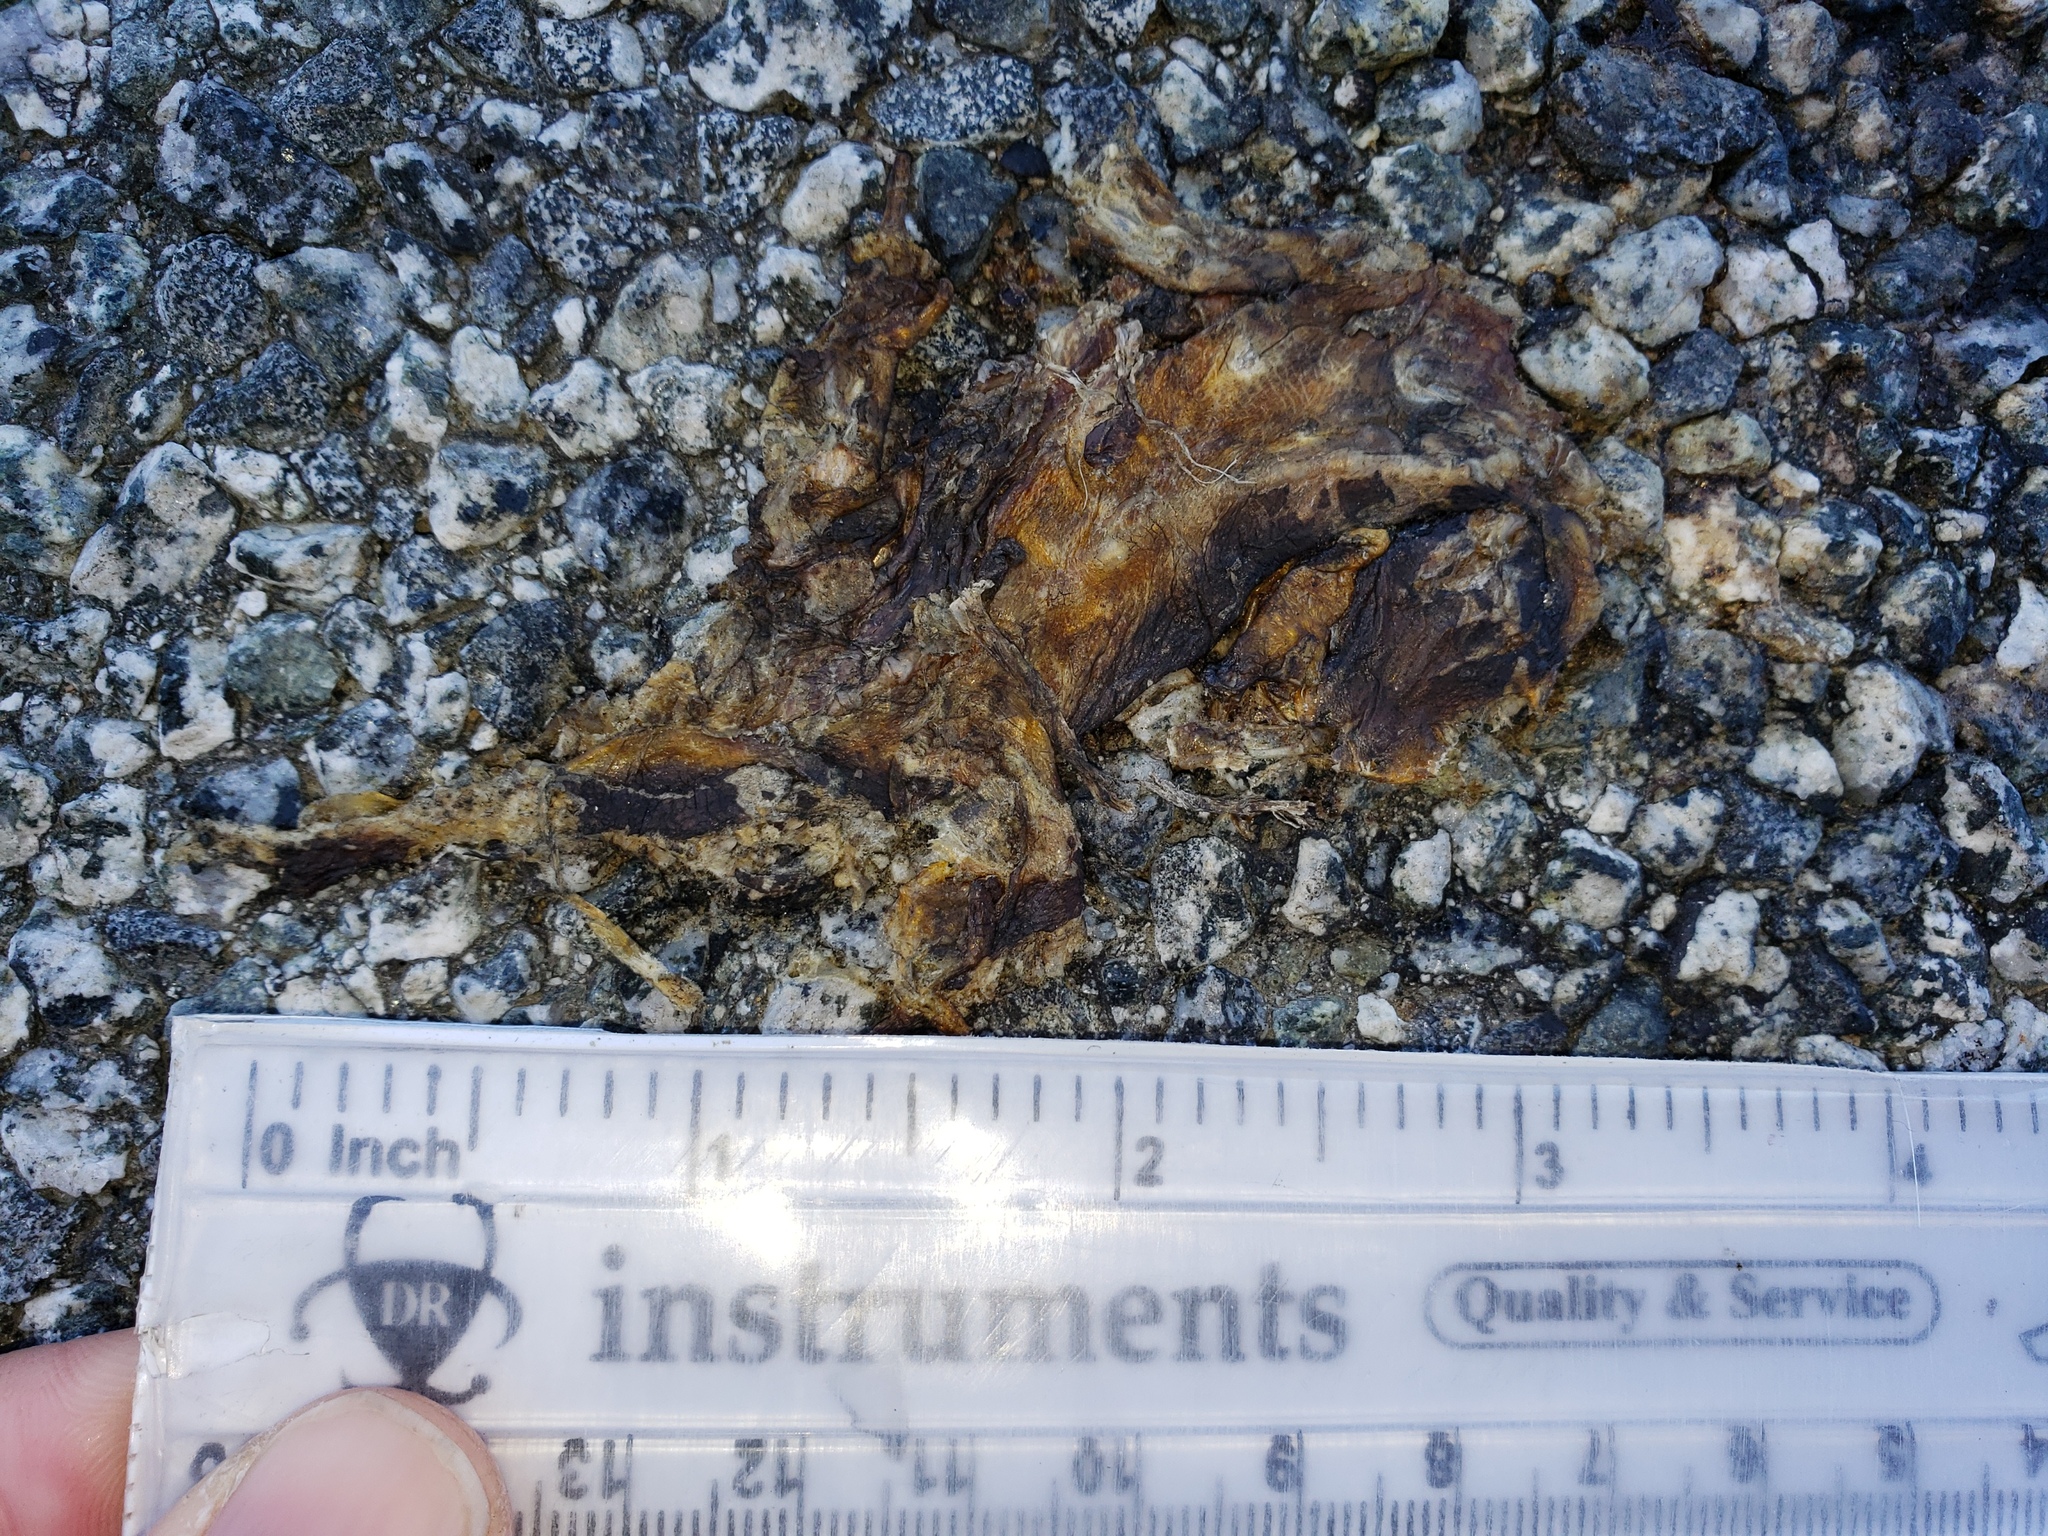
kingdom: Animalia
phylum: Chordata
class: Amphibia
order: Caudata
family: Salamandridae
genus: Taricha
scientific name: Taricha
